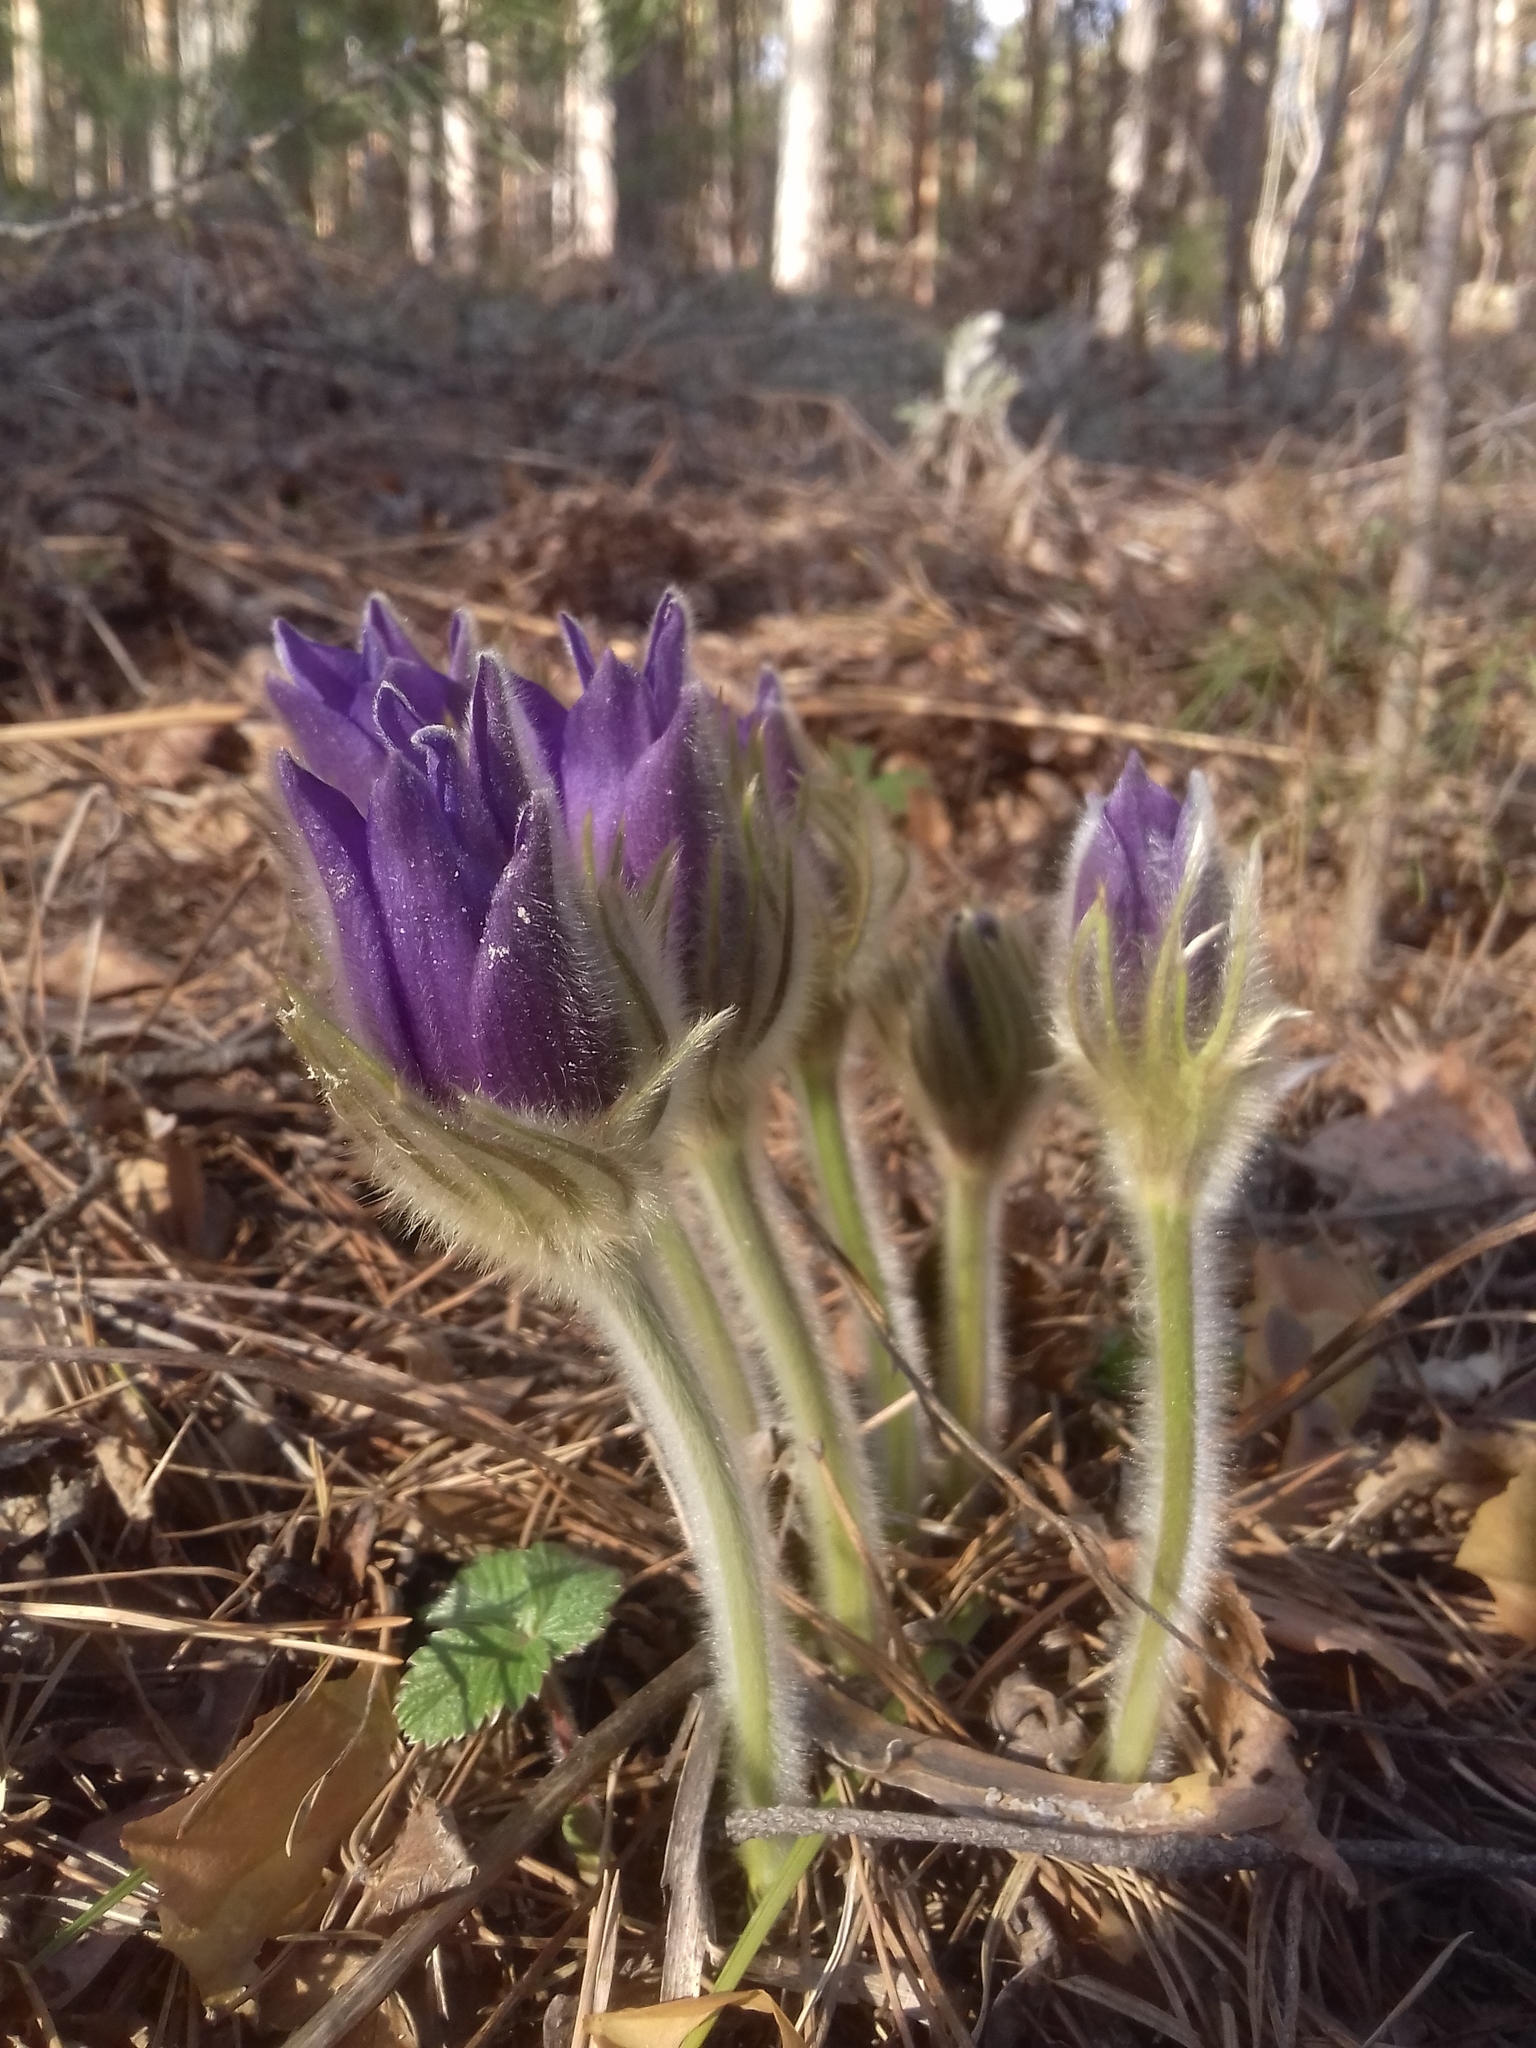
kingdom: Plantae
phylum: Tracheophyta
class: Magnoliopsida
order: Ranunculales
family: Ranunculaceae
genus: Pulsatilla
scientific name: Pulsatilla patens
